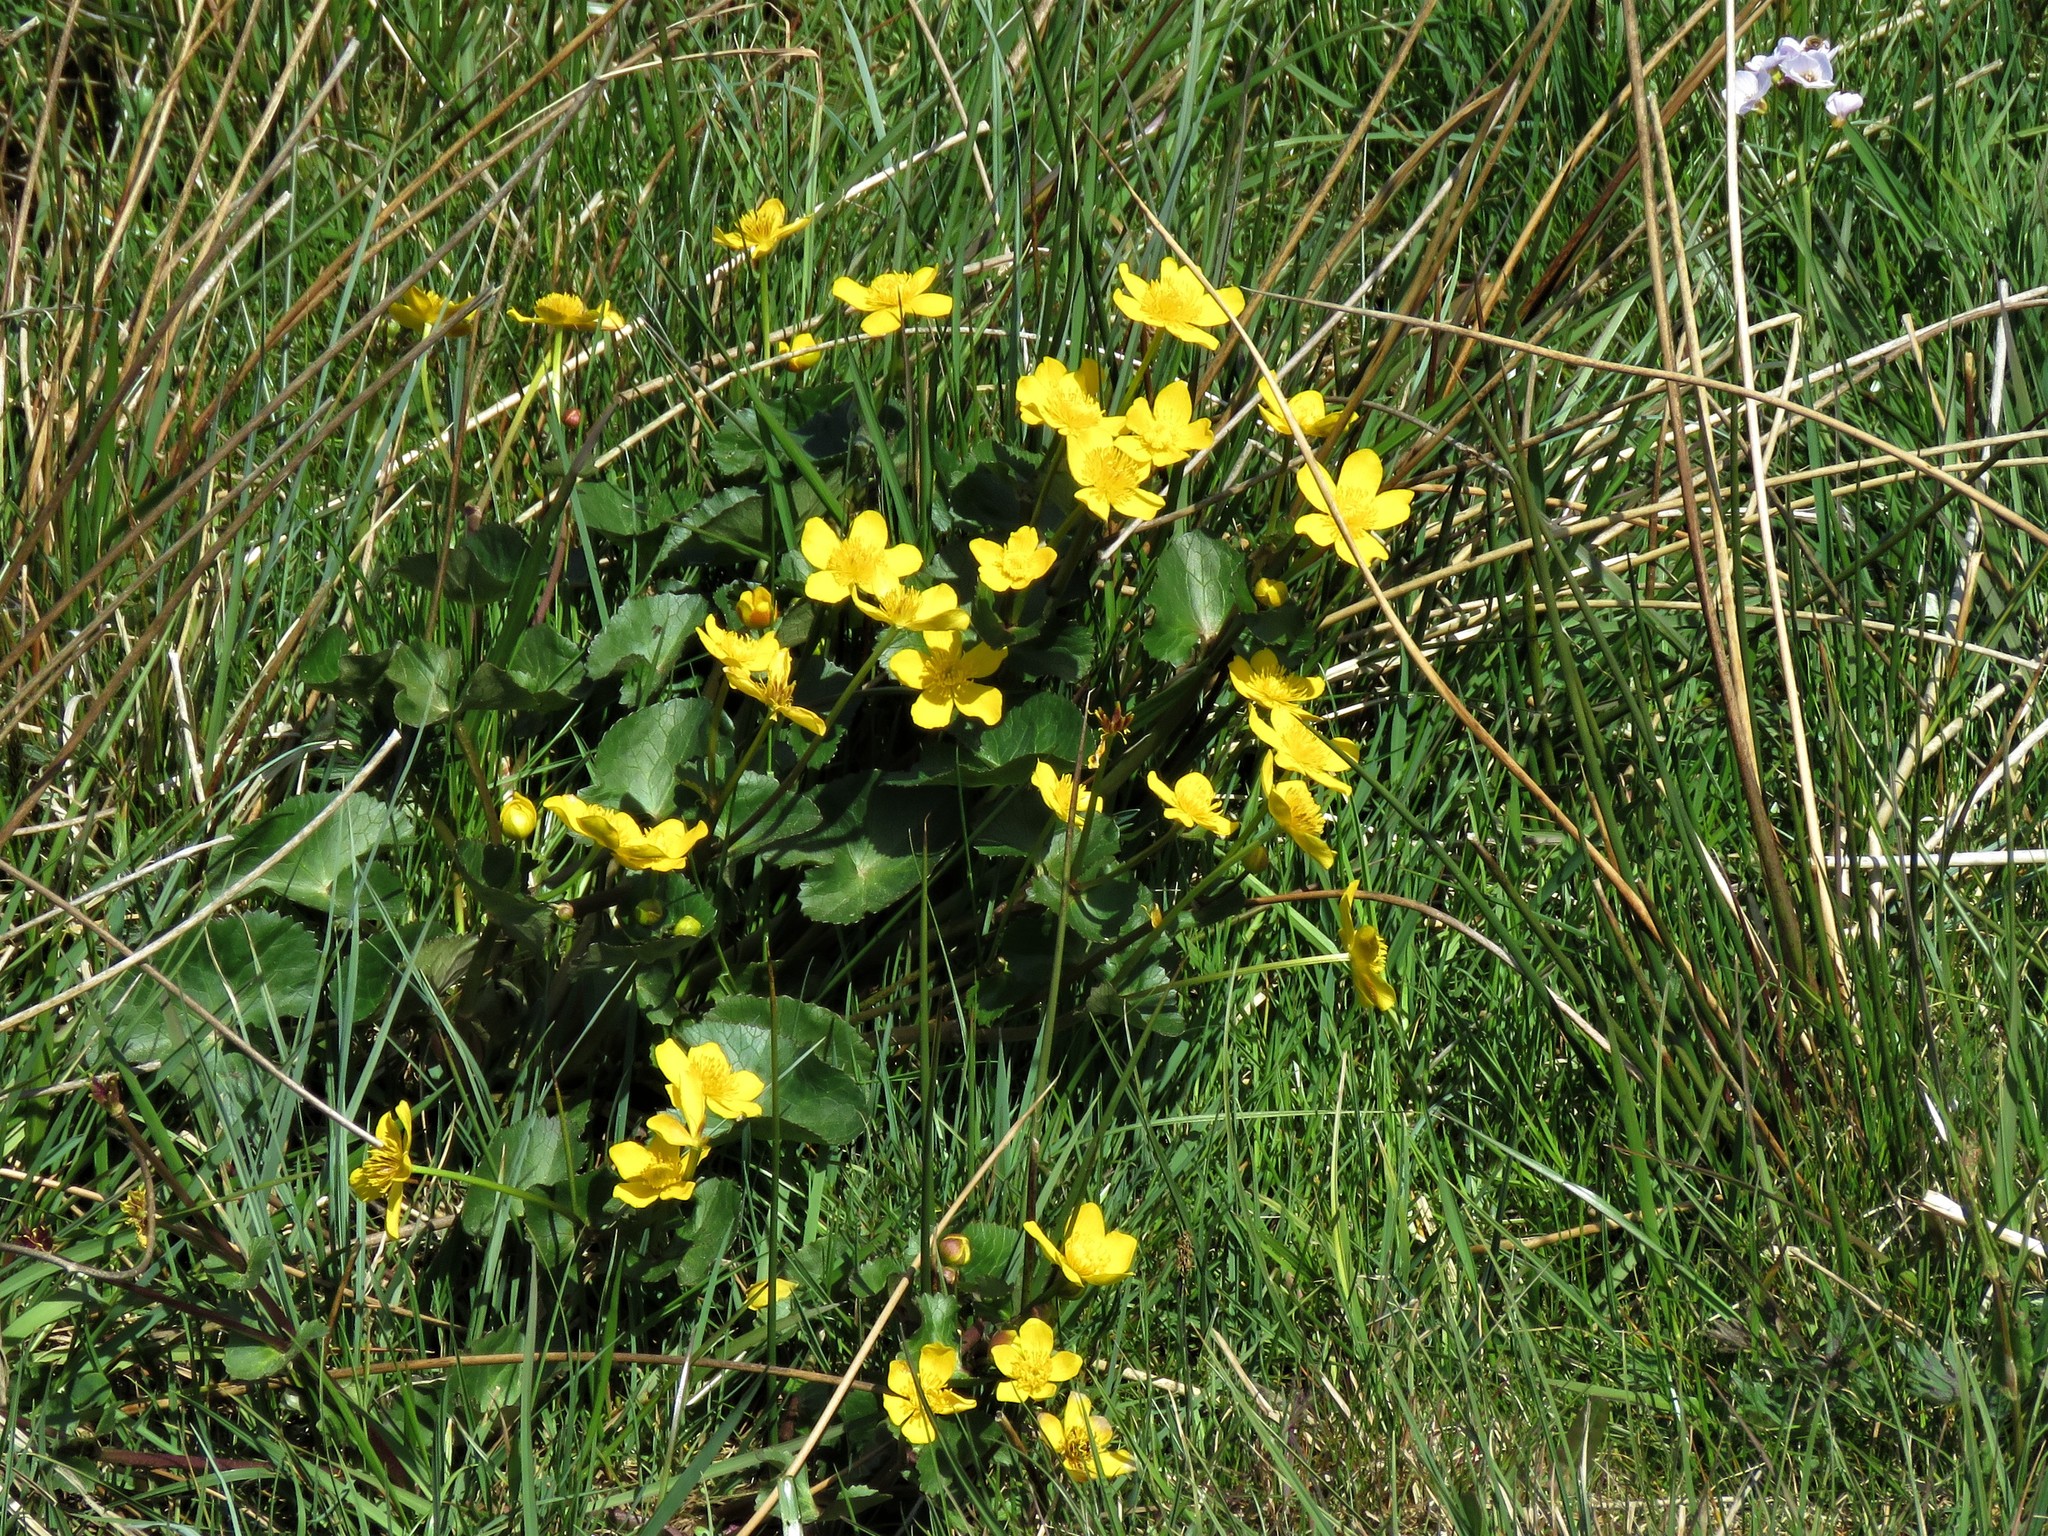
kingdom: Plantae
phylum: Tracheophyta
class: Magnoliopsida
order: Ranunculales
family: Ranunculaceae
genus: Caltha
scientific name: Caltha palustris
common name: Marsh marigold
